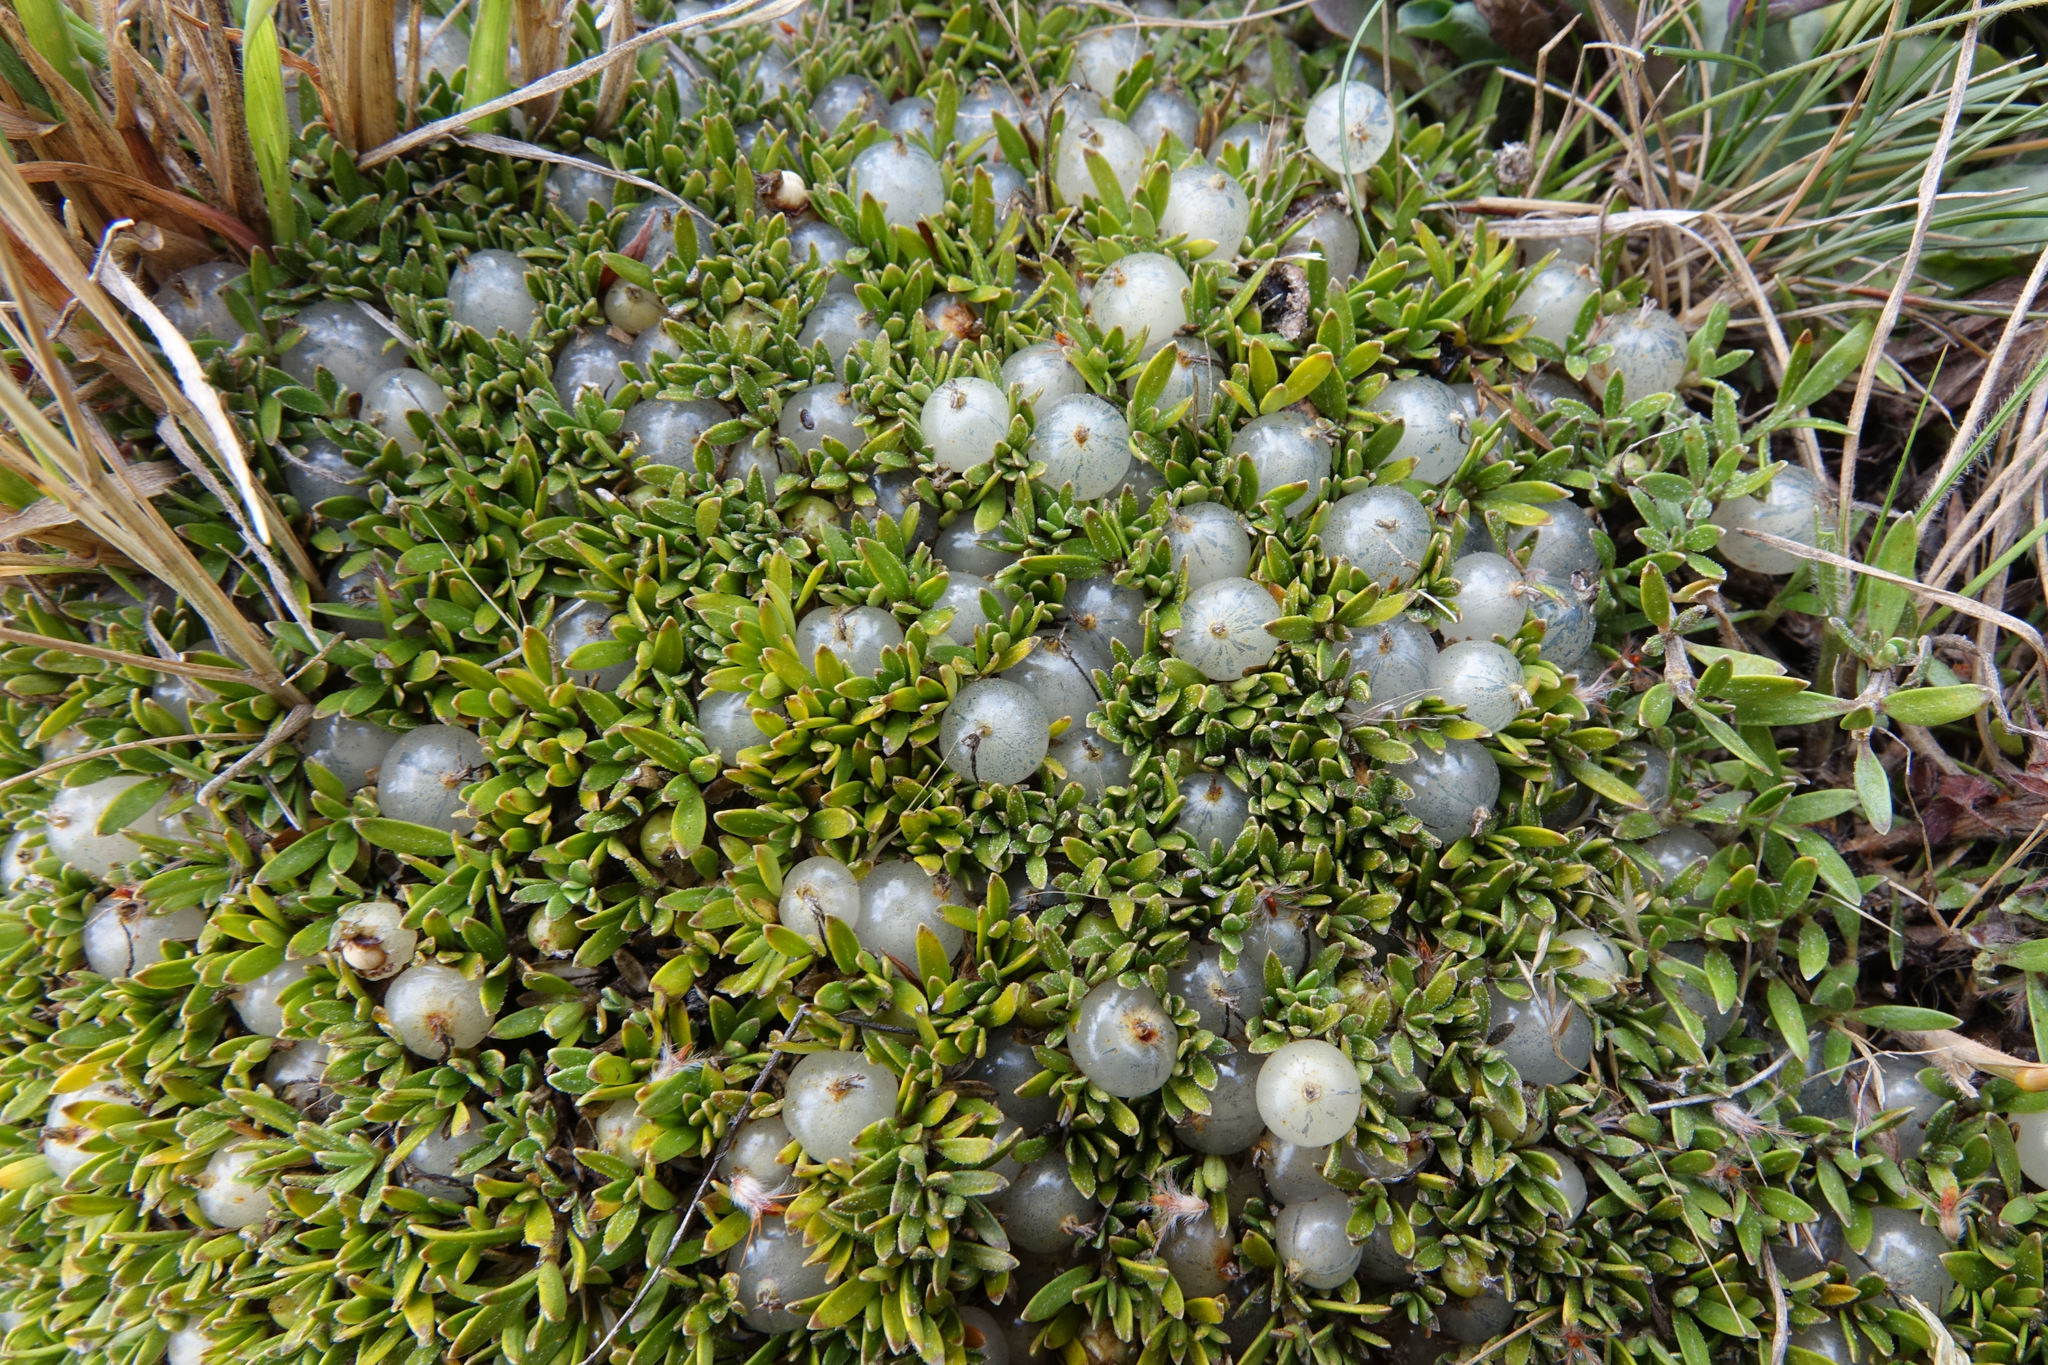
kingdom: Plantae
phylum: Tracheophyta
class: Magnoliopsida
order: Gentianales
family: Rubiaceae
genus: Coprosma
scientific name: Coprosma petriei
